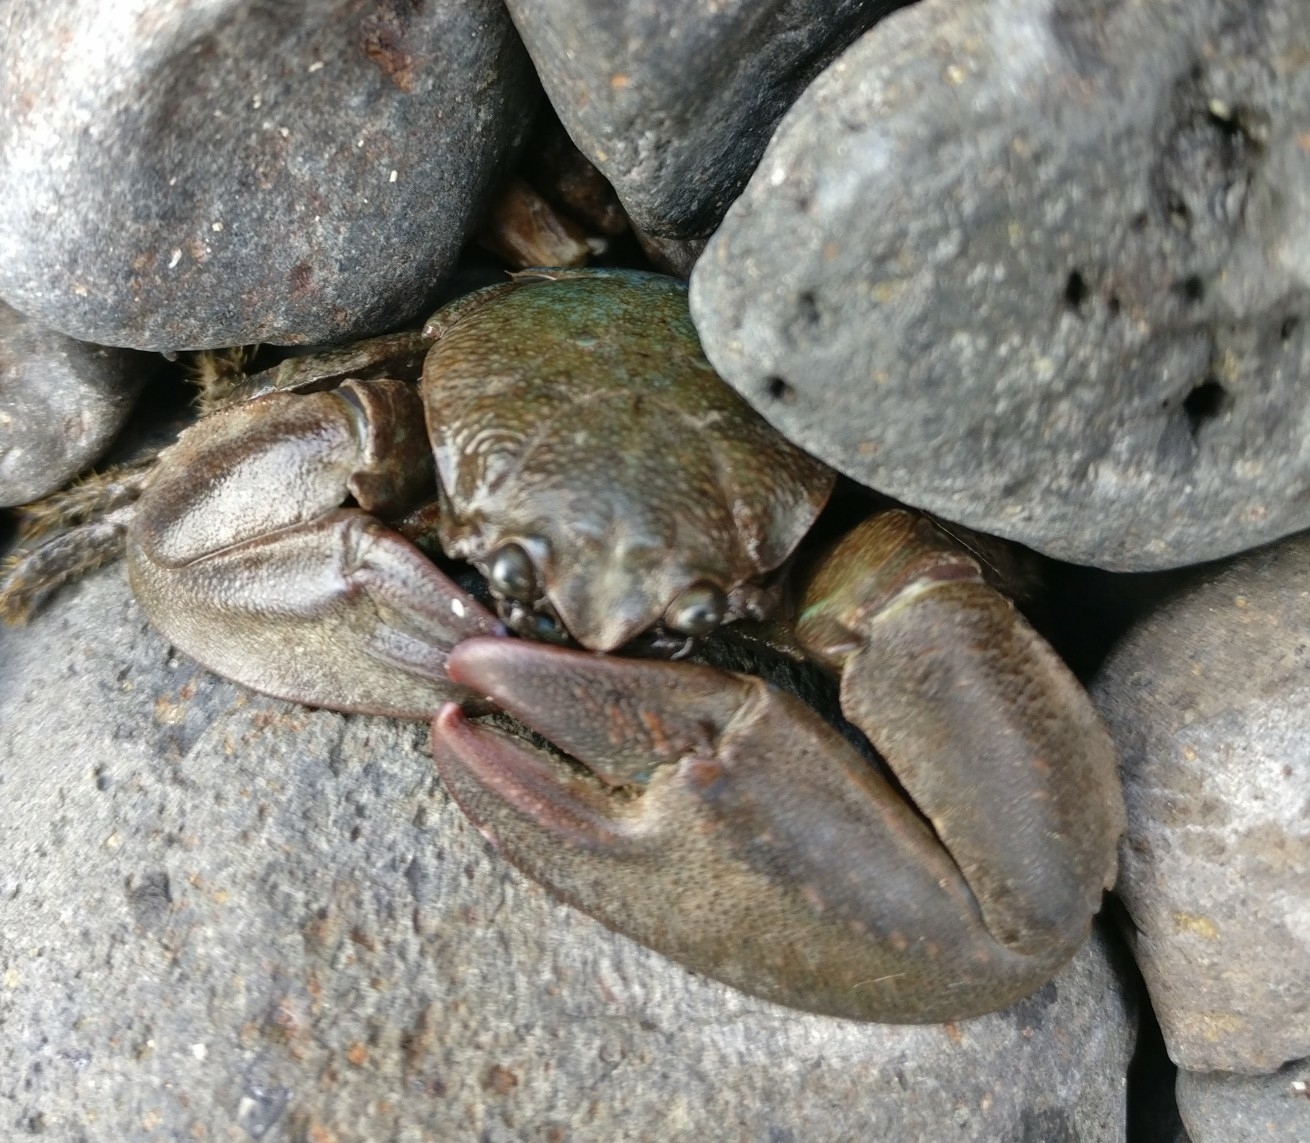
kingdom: Animalia
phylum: Arthropoda
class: Malacostraca
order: Decapoda
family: Porcellanidae
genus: Petrolisthes
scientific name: Petrolisthes elongatus
